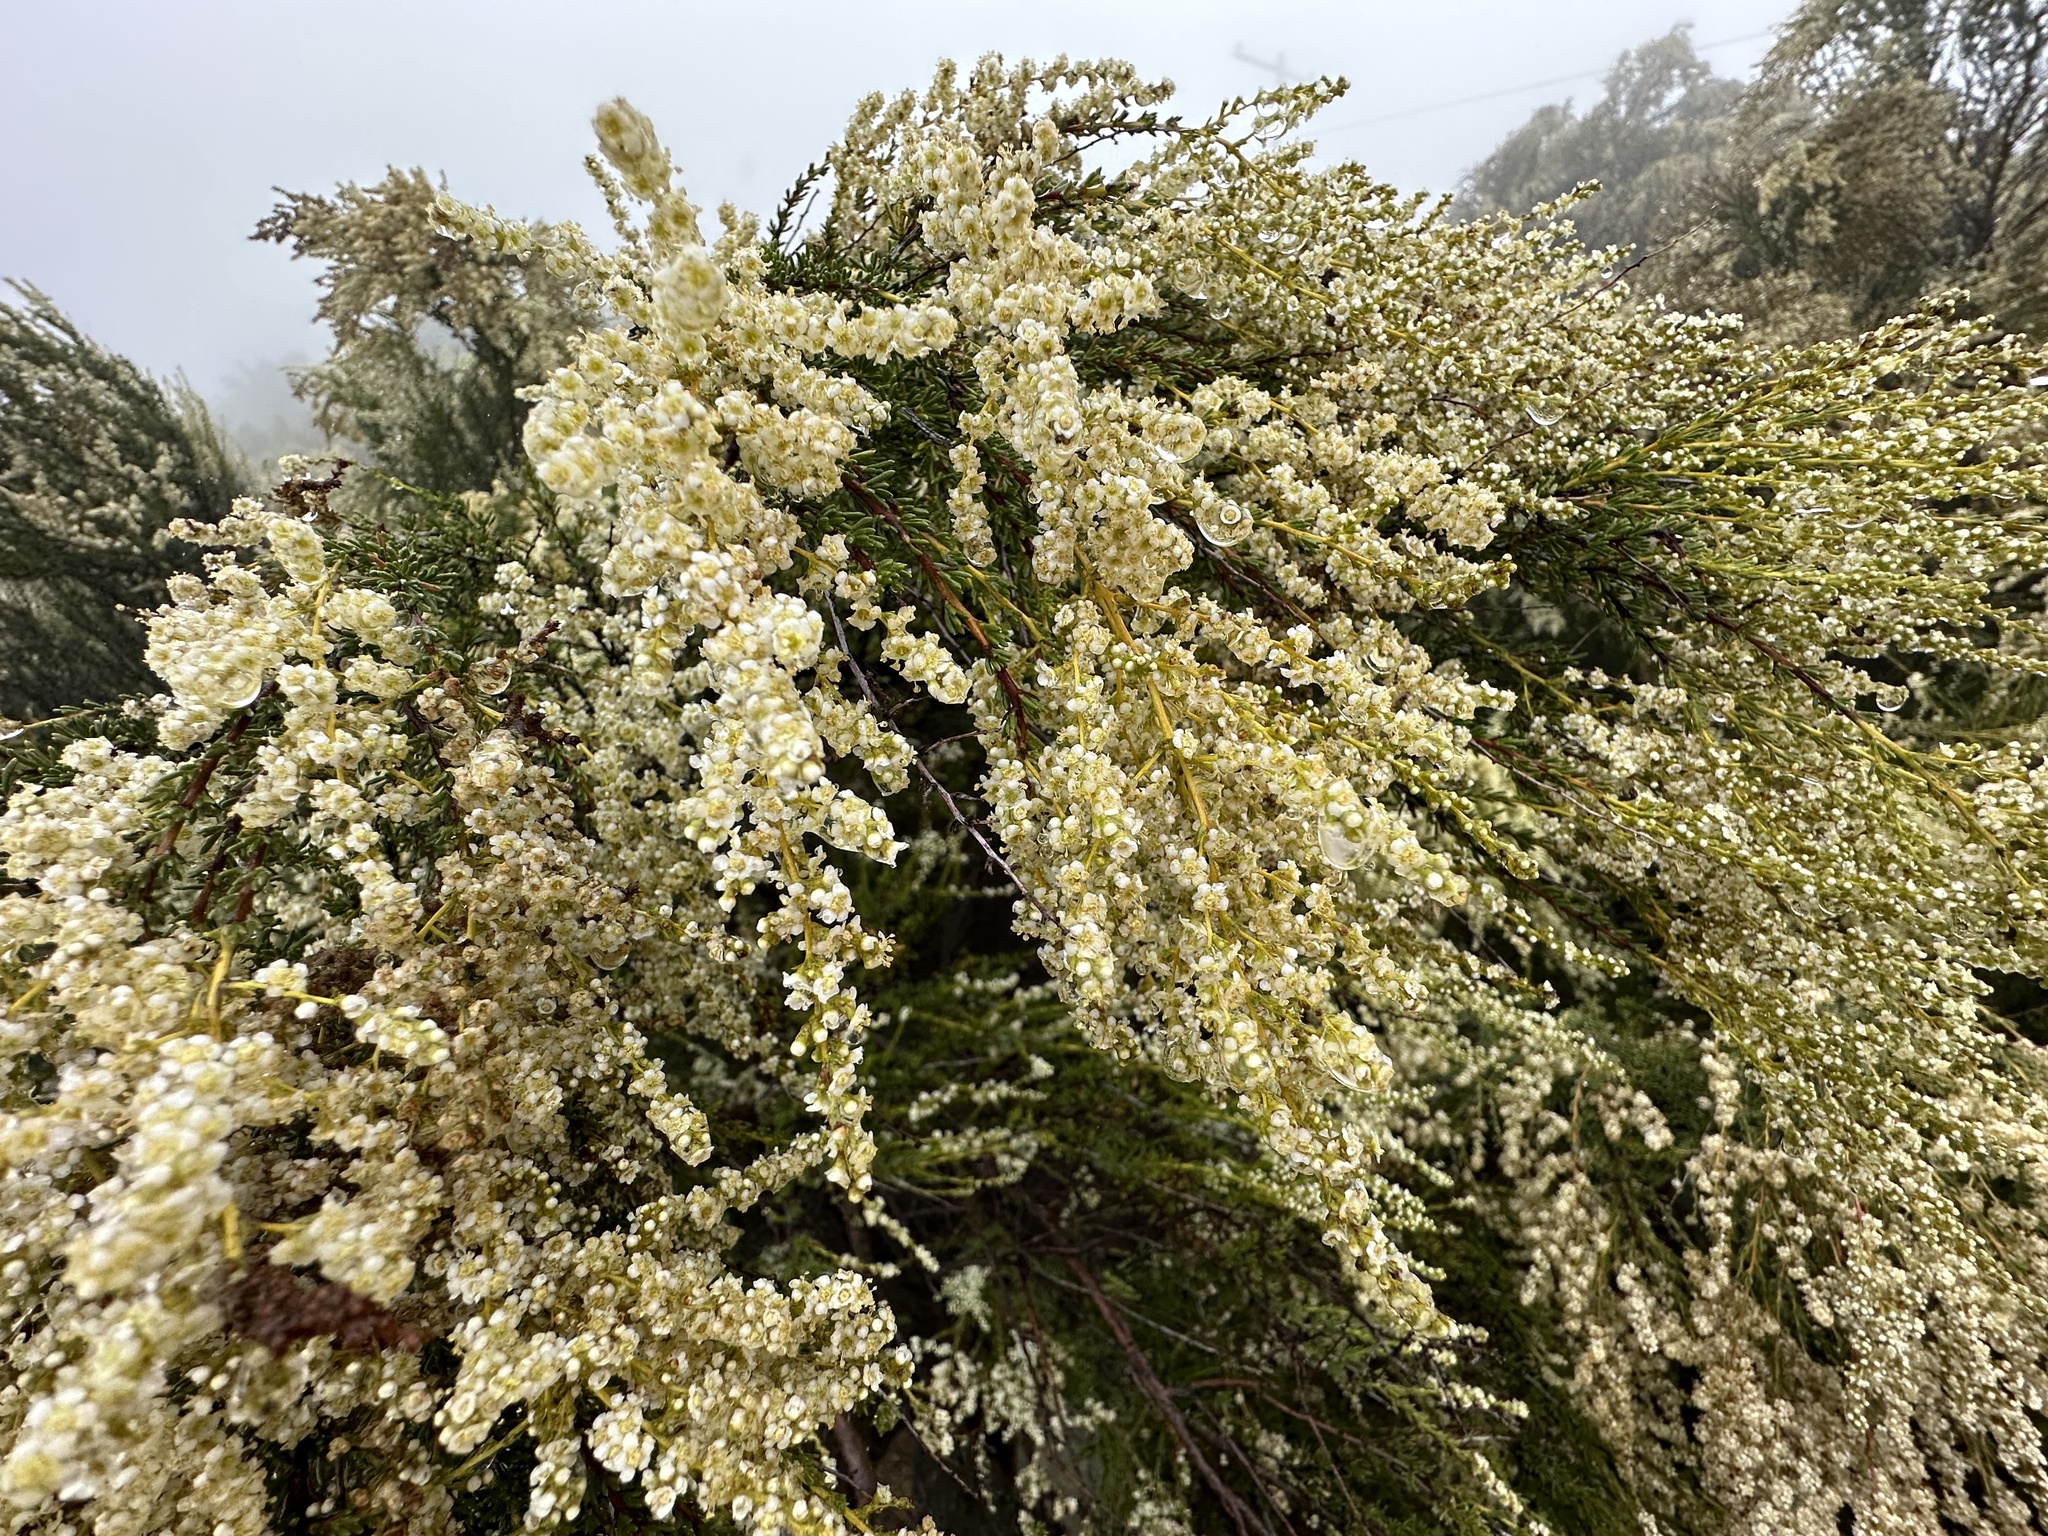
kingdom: Plantae
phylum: Tracheophyta
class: Magnoliopsida
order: Rosales
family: Rosaceae
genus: Adenostoma
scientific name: Adenostoma fasciculatum
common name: Chamise
